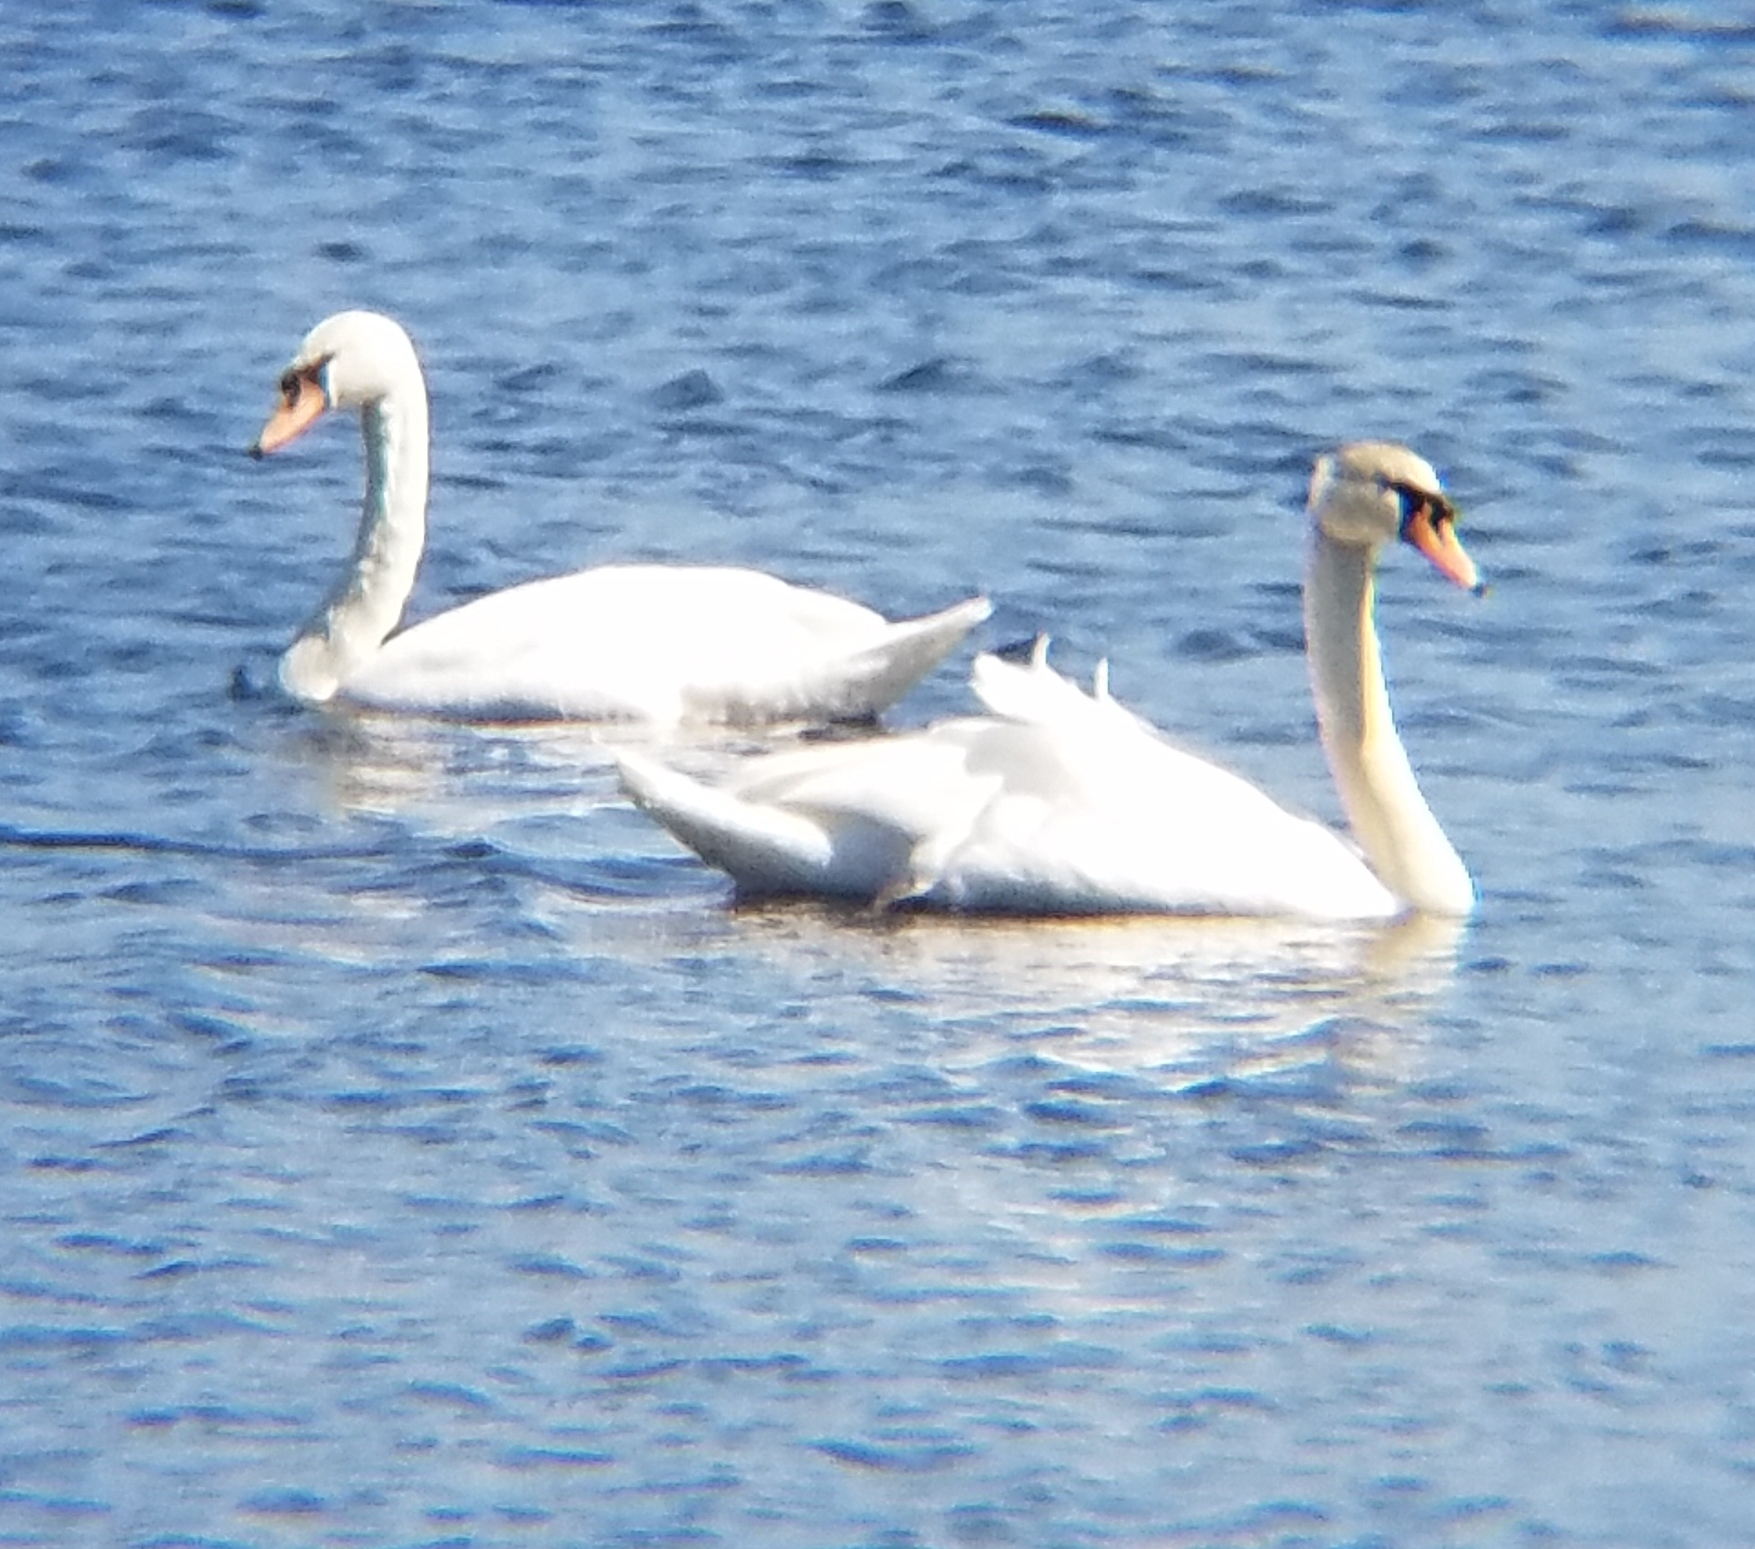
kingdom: Animalia
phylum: Chordata
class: Aves
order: Anseriformes
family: Anatidae
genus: Cygnus
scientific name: Cygnus olor
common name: Mute swan
